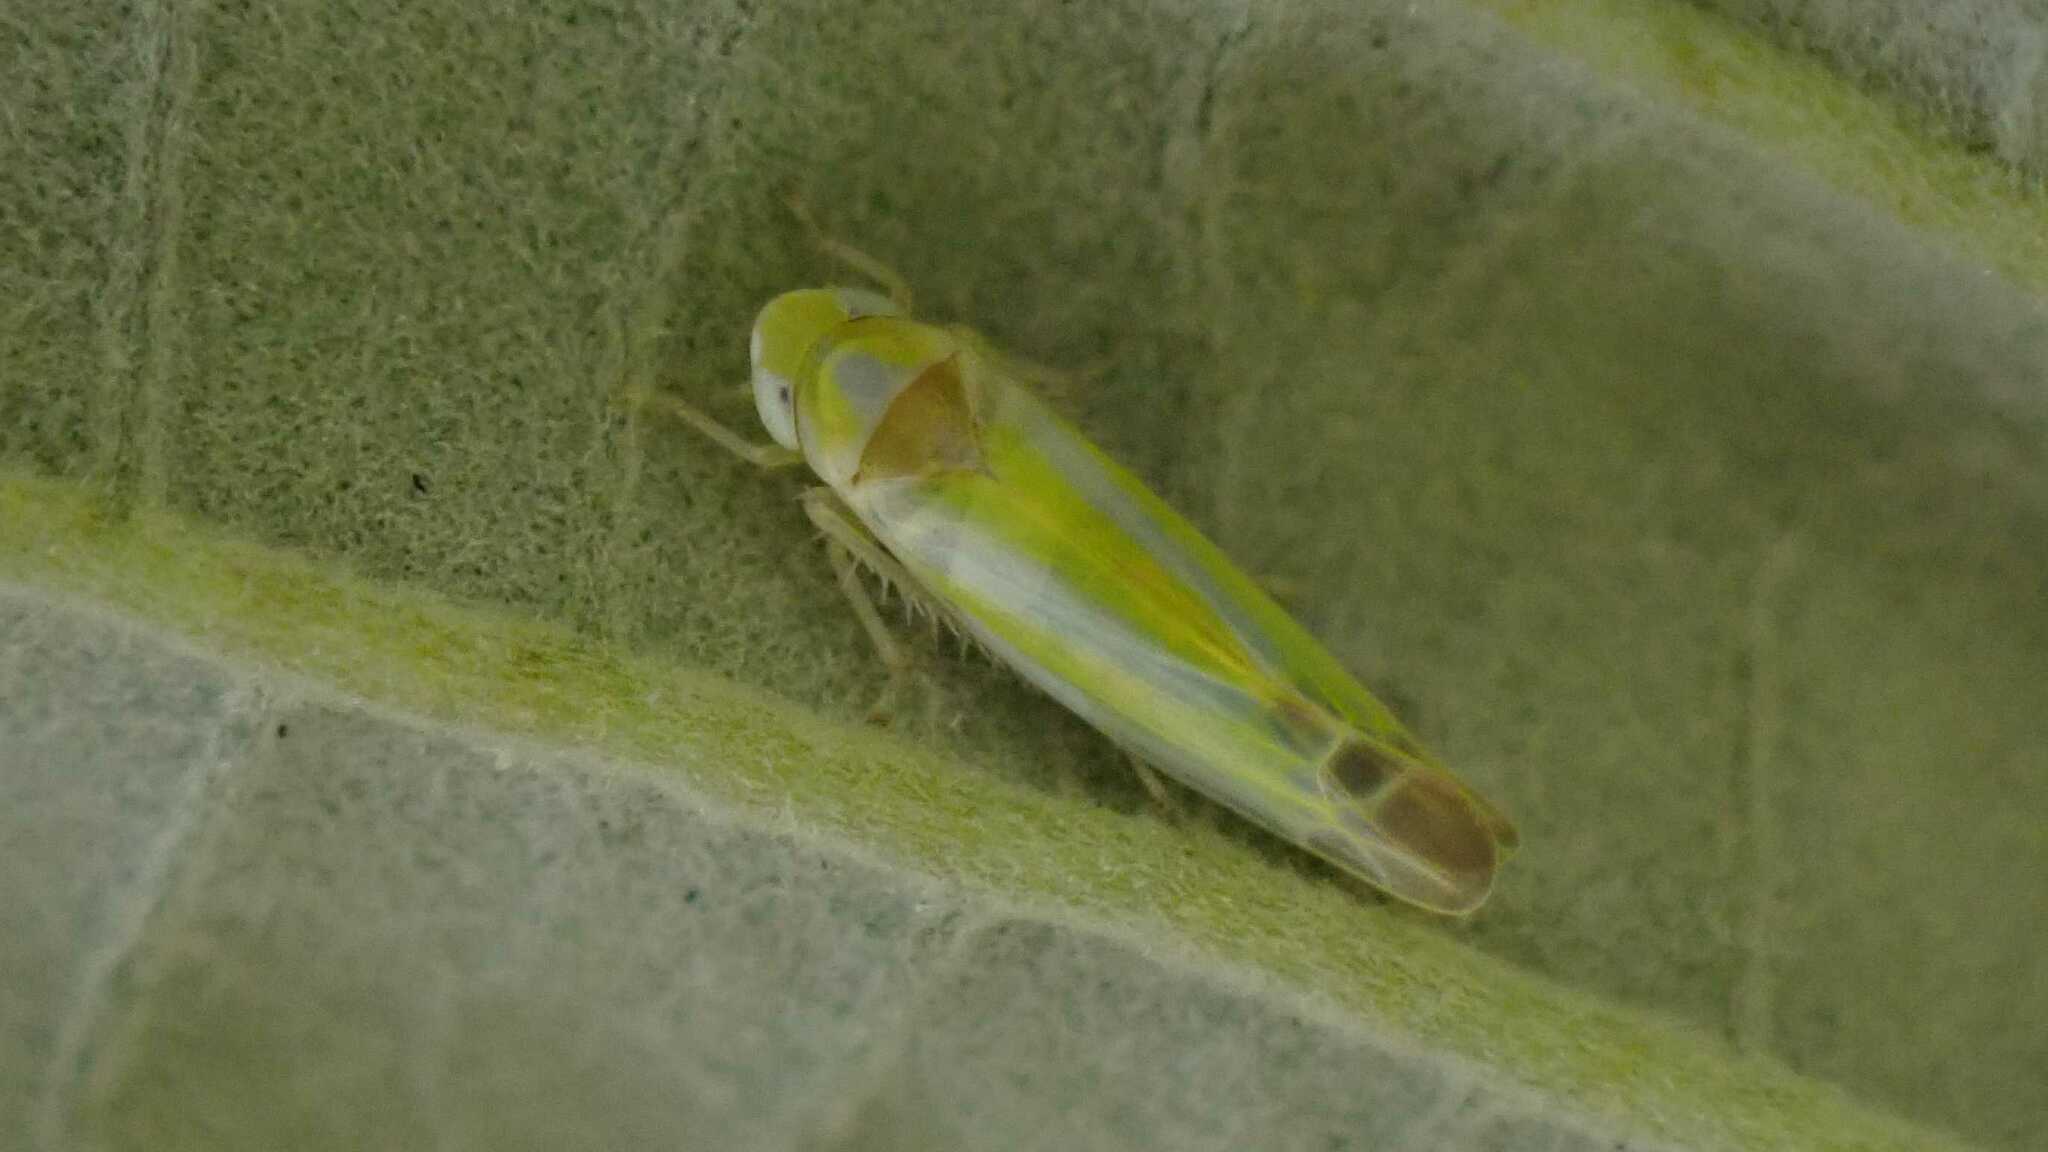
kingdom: Animalia
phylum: Arthropoda
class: Insecta
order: Hemiptera
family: Cicadellidae
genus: Lindbergina
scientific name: Lindbergina aurovittata
